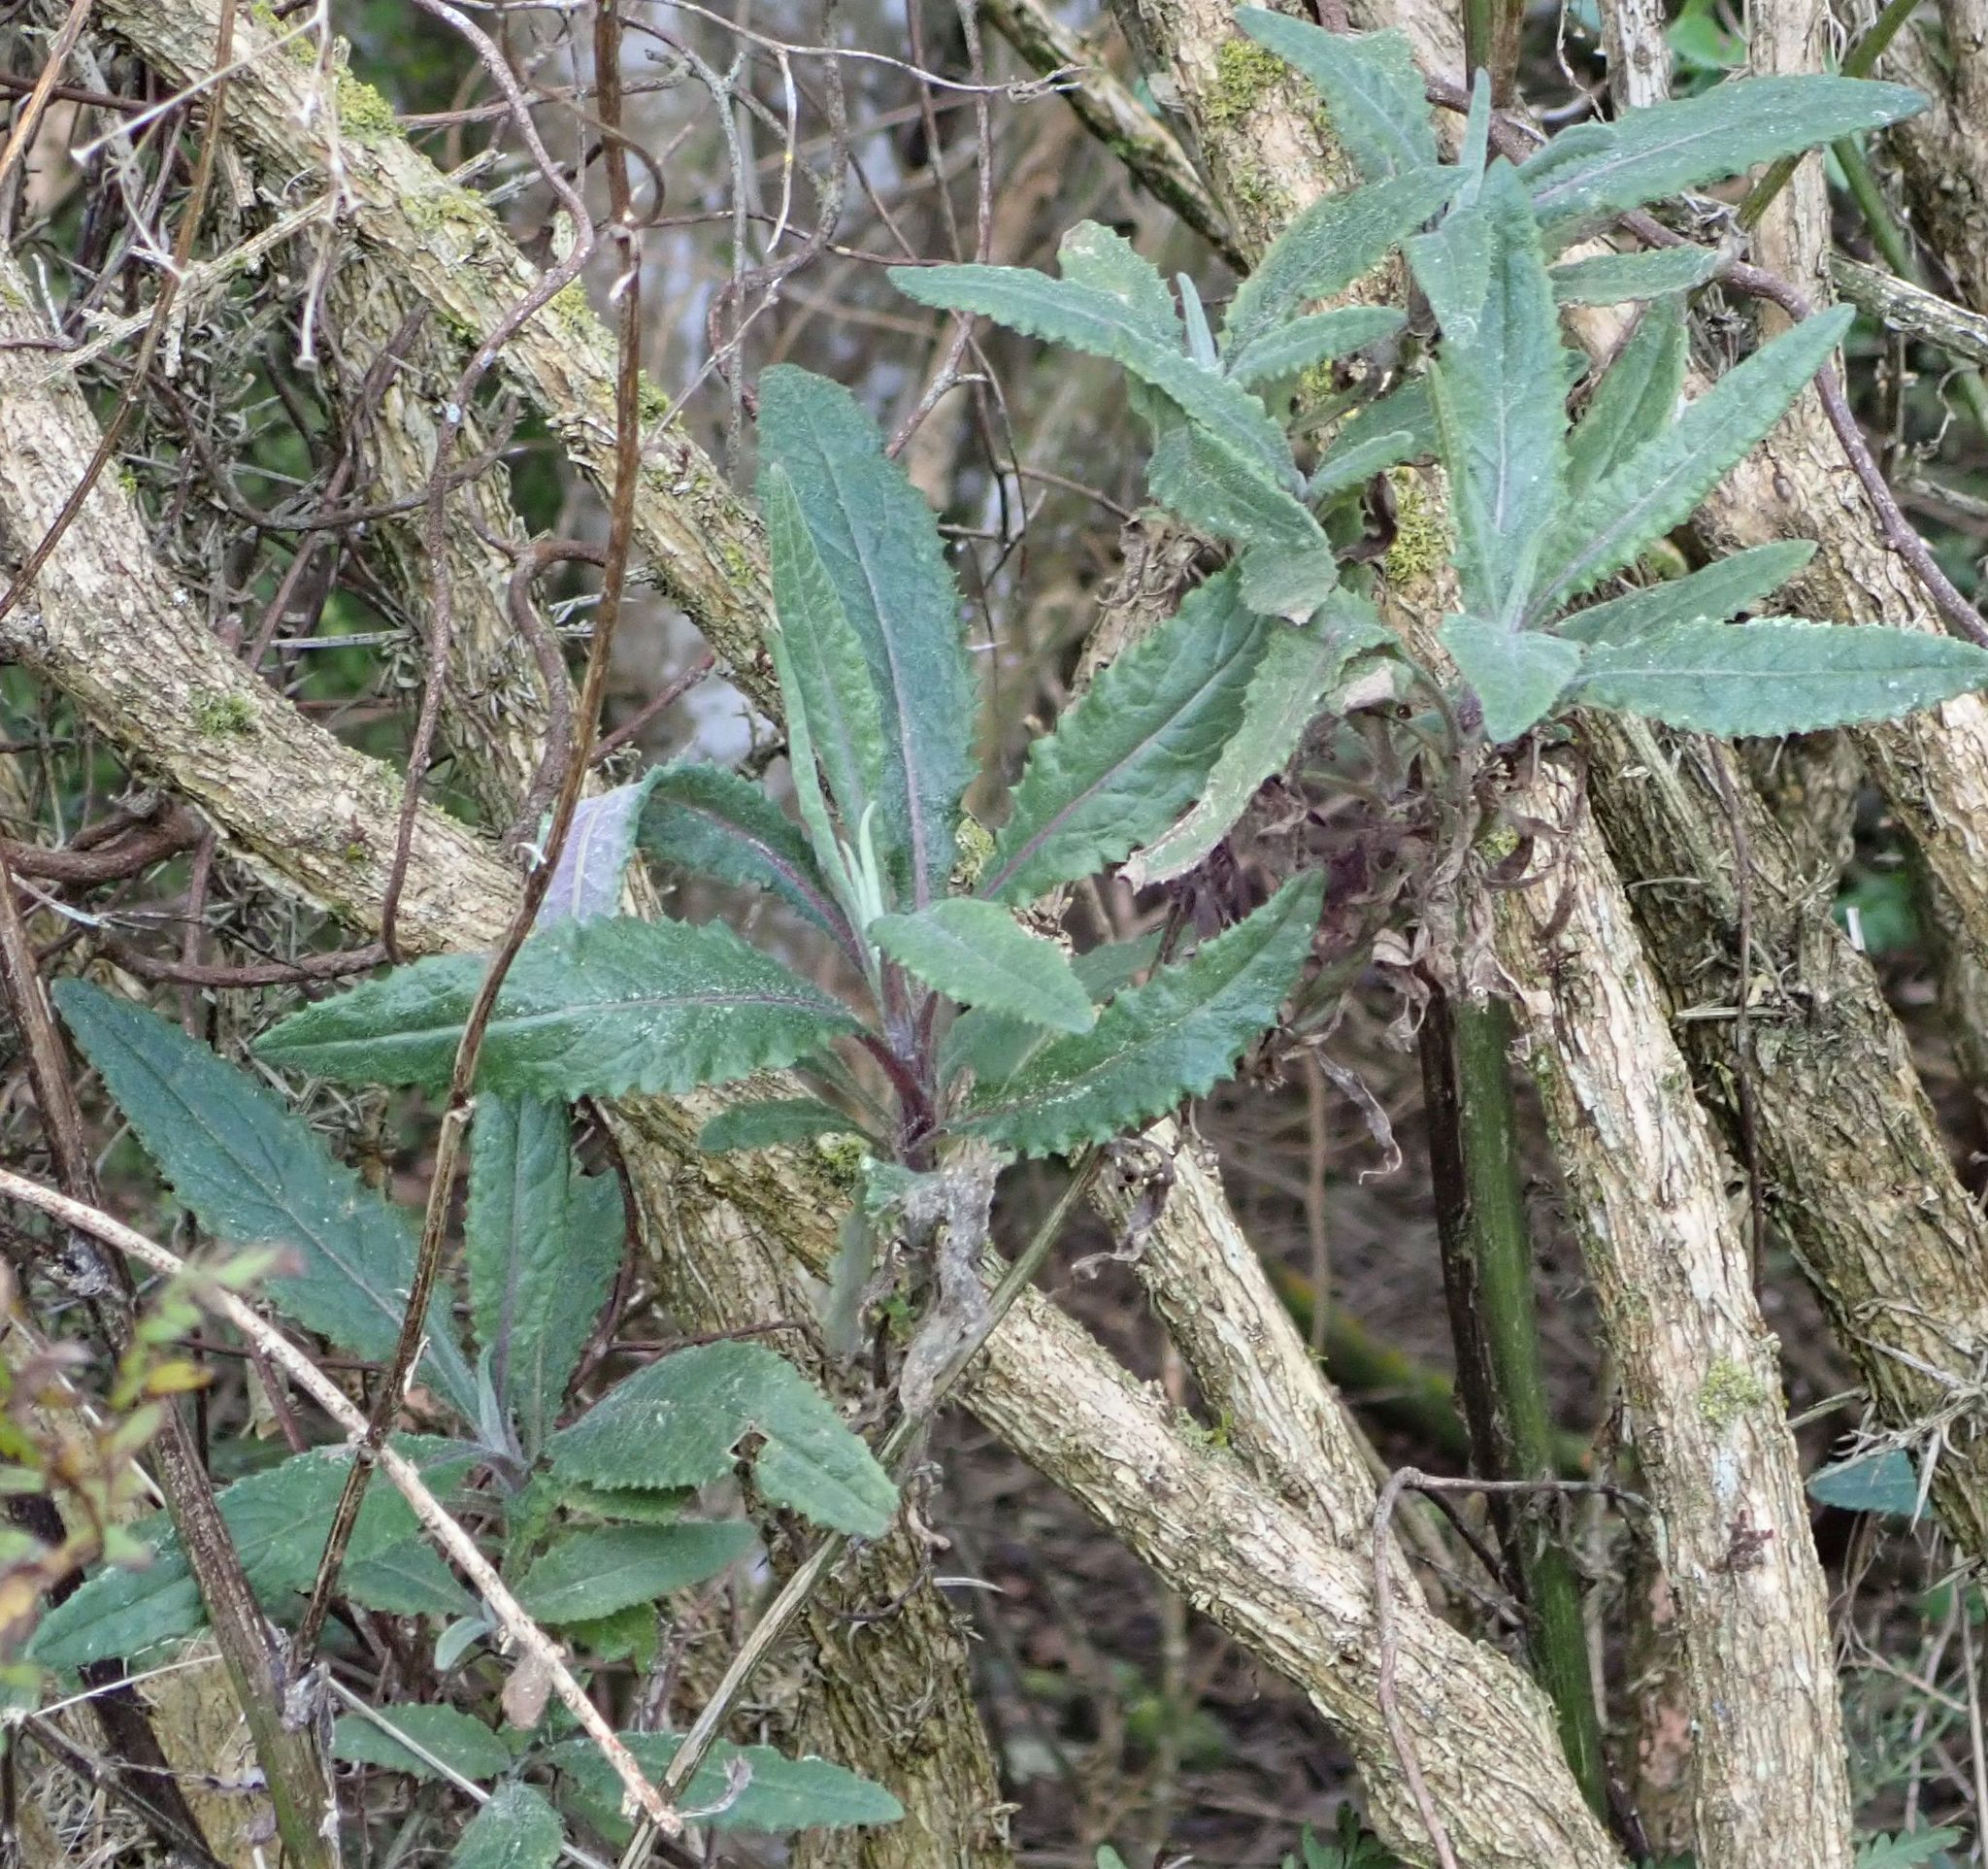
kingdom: Plantae
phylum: Tracheophyta
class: Magnoliopsida
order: Asterales
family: Asteraceae
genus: Senecio
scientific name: Senecio minimus
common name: Toothed fireweed
